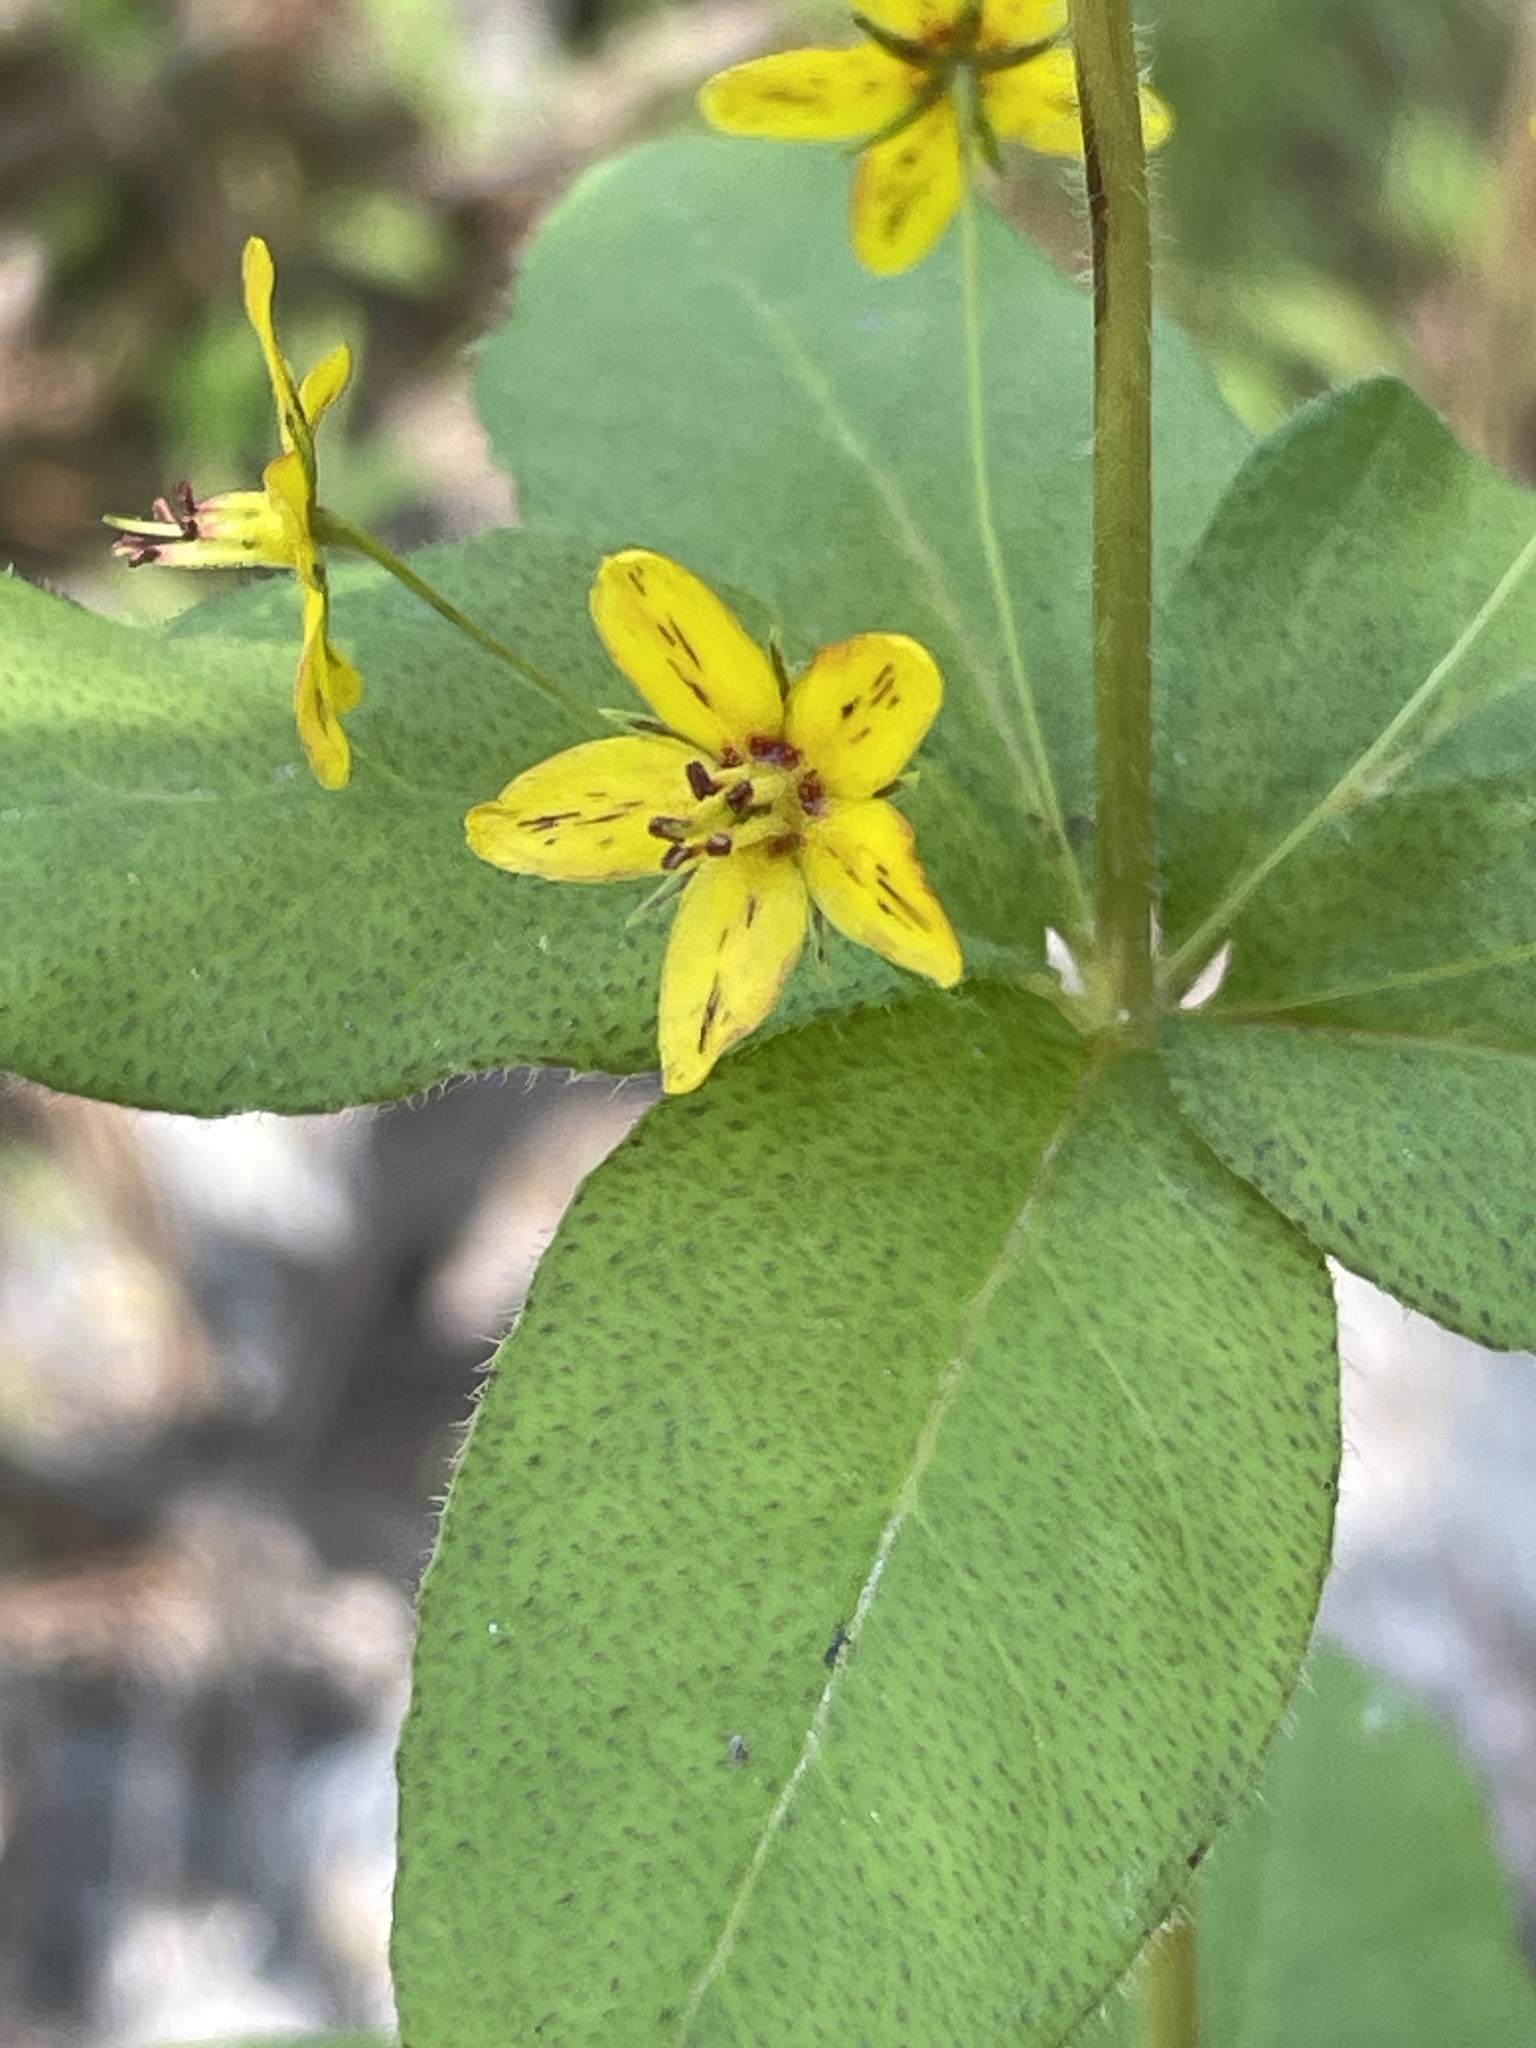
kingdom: Plantae
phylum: Tracheophyta
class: Magnoliopsida
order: Ericales
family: Primulaceae
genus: Lysimachia
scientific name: Lysimachia quadrifolia
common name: Whorled loosestrife
